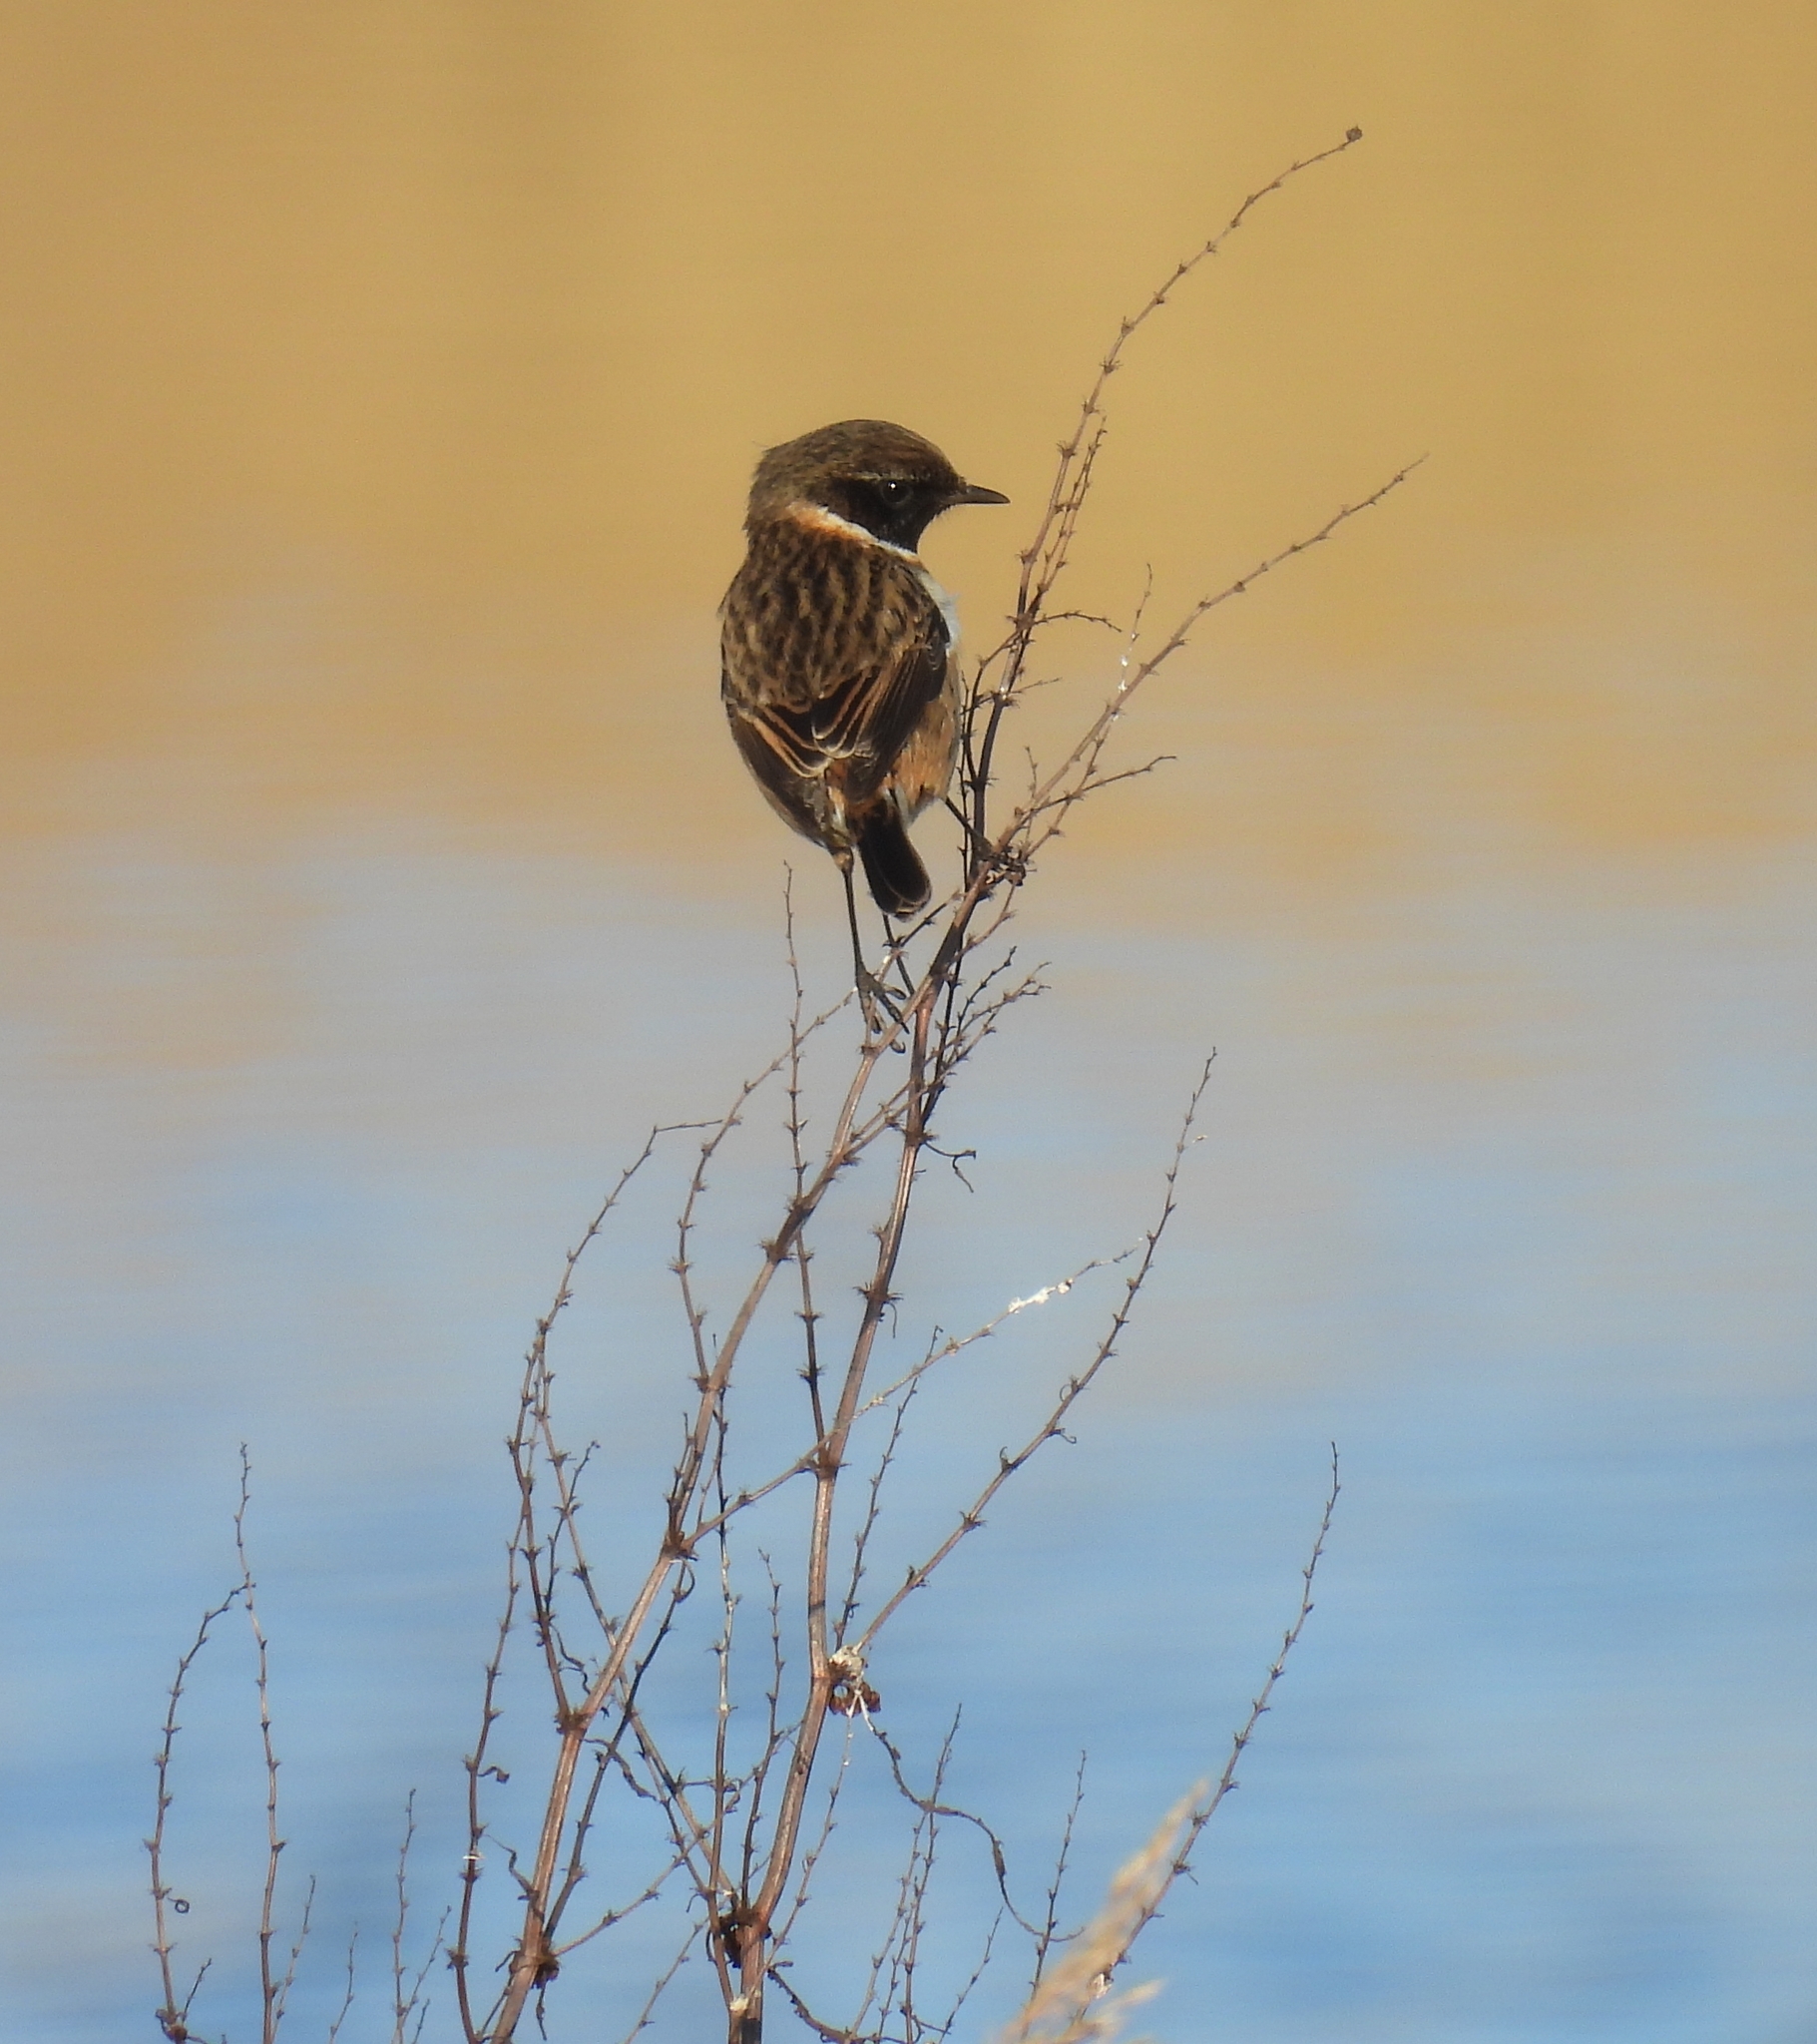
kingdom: Animalia
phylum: Chordata
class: Aves
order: Passeriformes
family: Muscicapidae
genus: Saxicola
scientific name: Saxicola rubicola
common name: European stonechat
